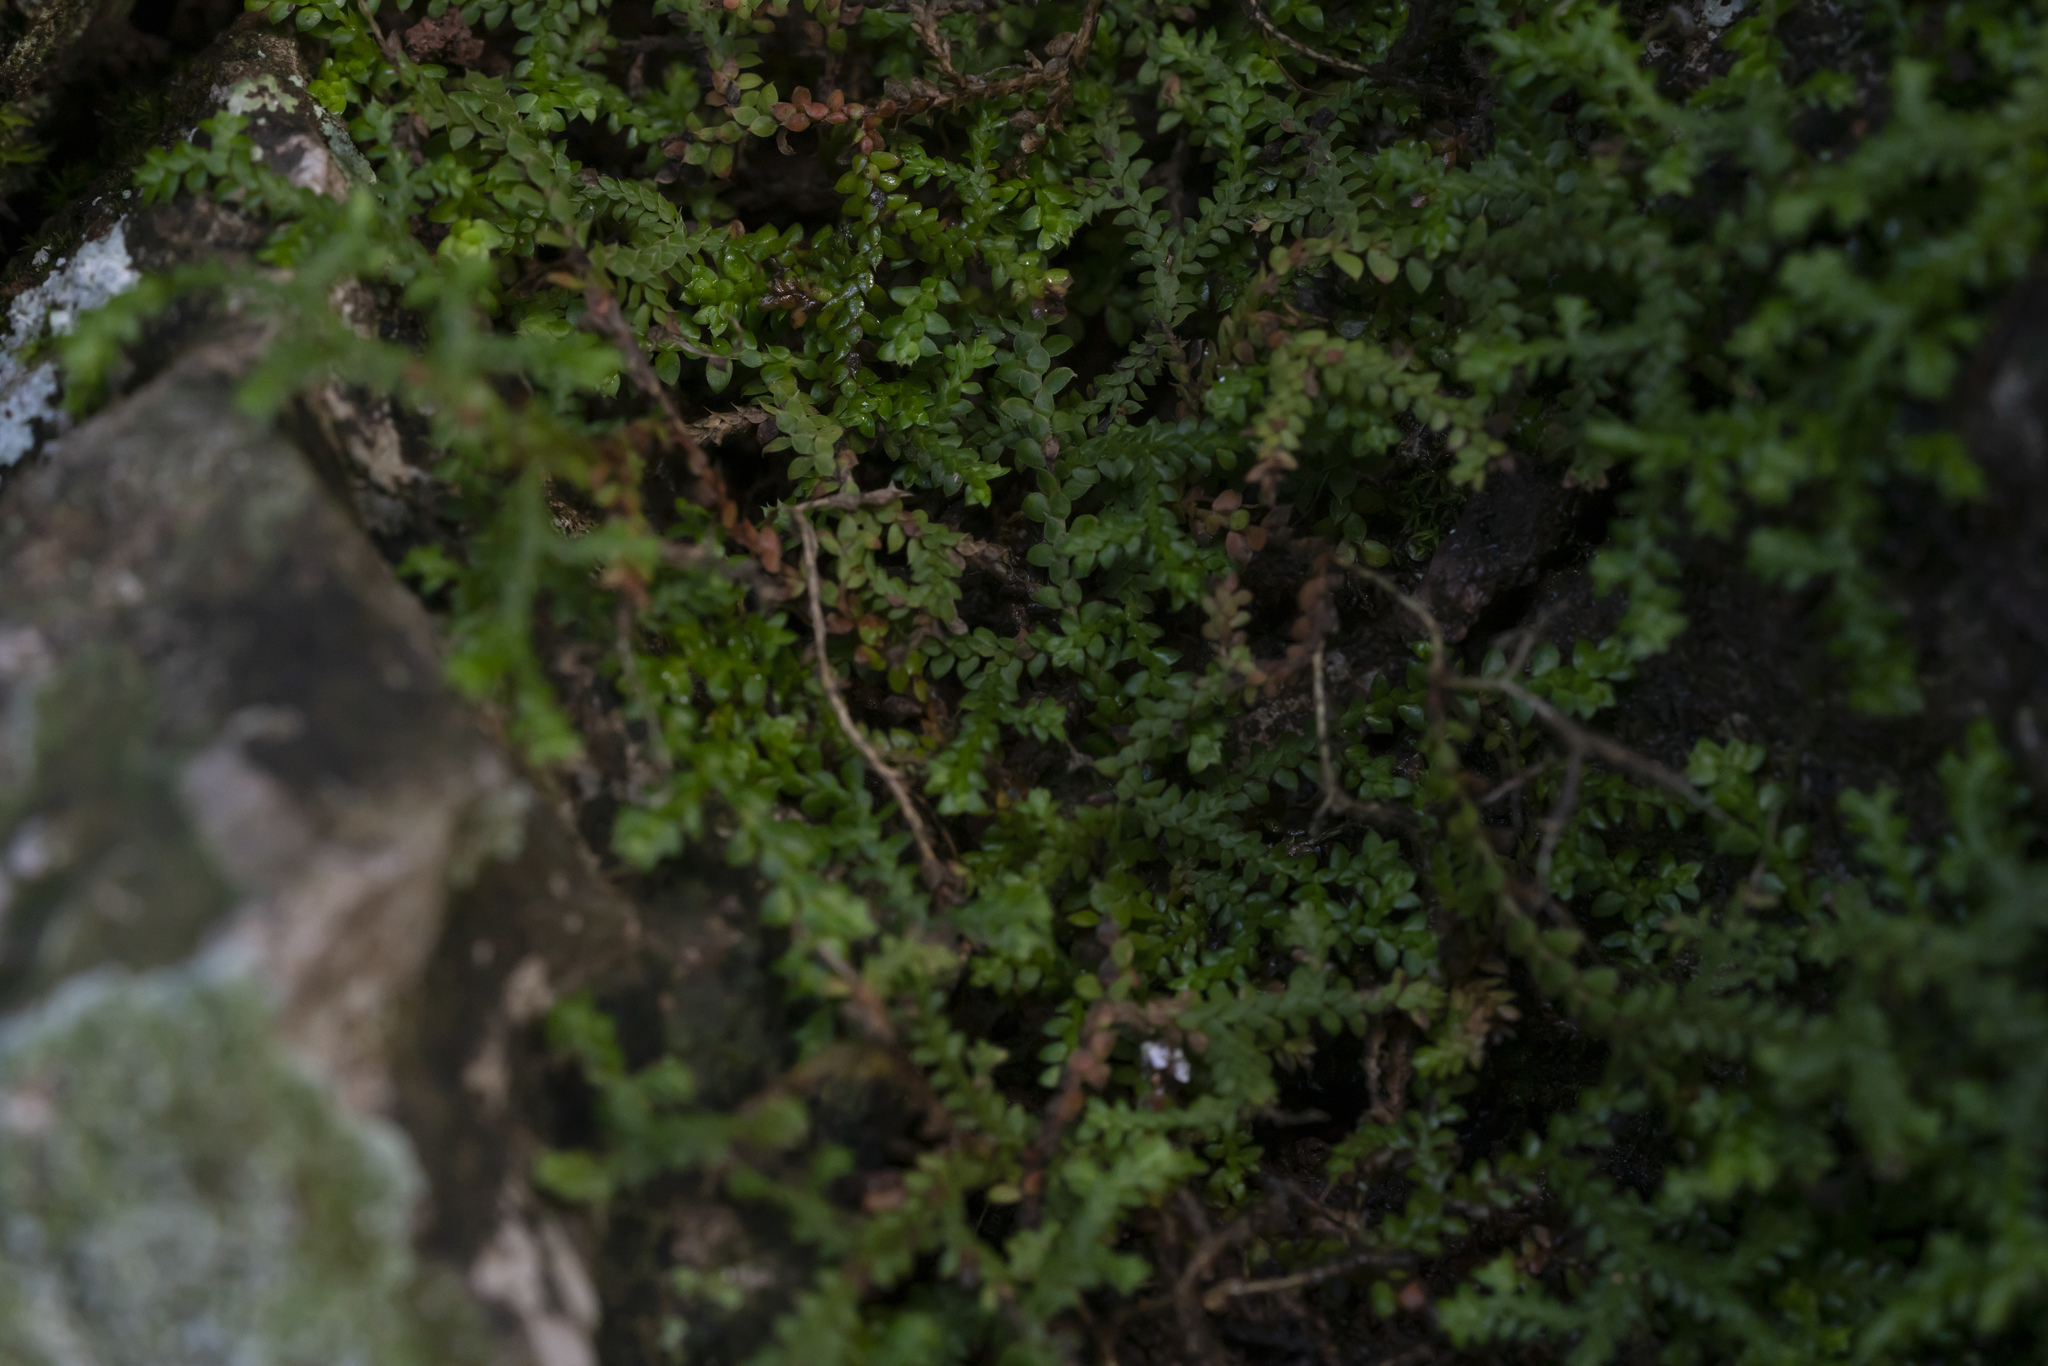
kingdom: Plantae
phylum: Tracheophyta
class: Lycopodiopsida
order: Selaginellales
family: Selaginellaceae
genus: Selaginella
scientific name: Selaginella denticulata
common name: Toothed-leaved clubmoss
